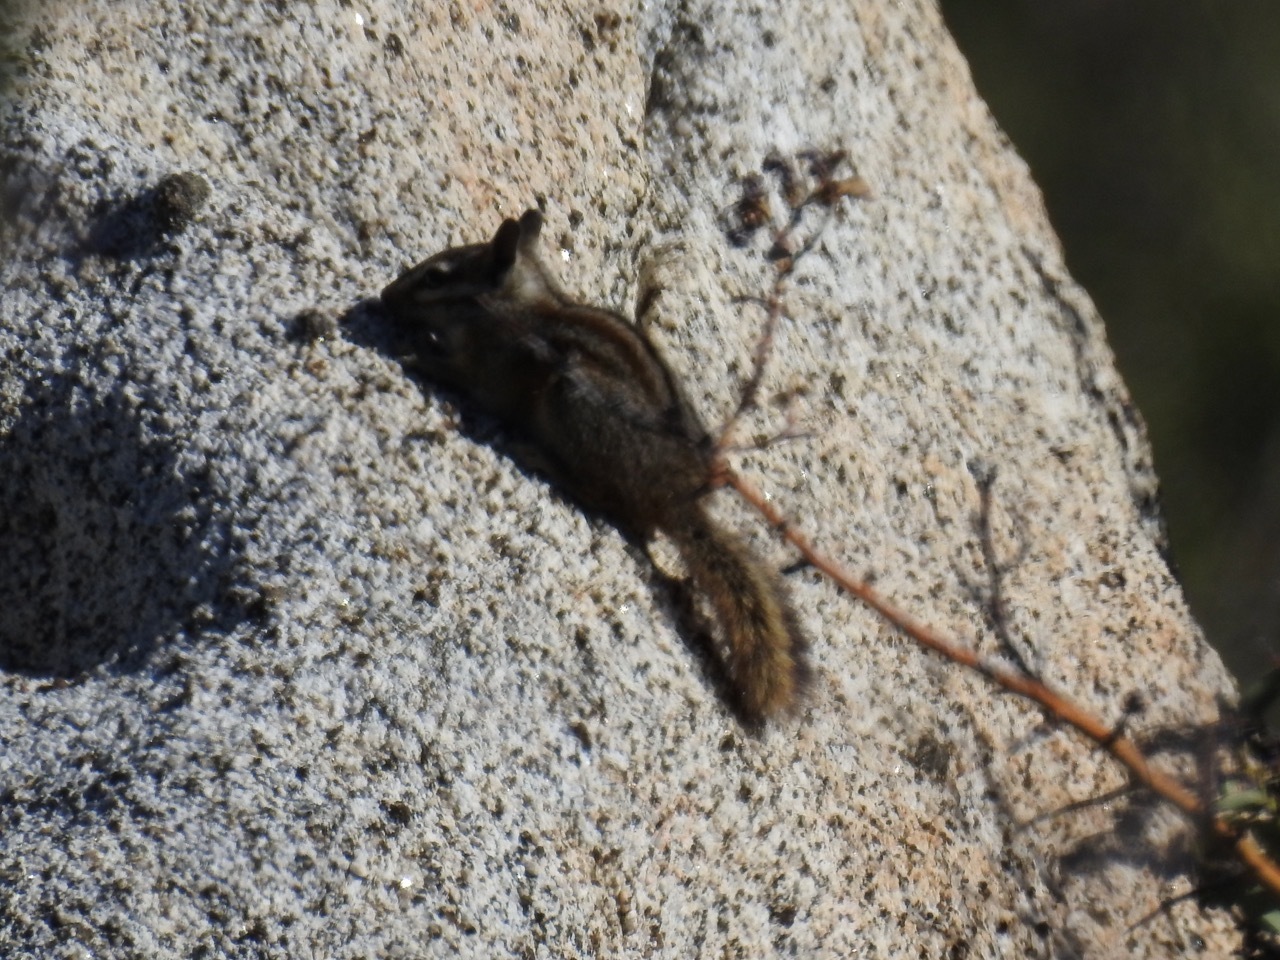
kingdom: Animalia
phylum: Chordata
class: Mammalia
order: Rodentia
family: Sciuridae
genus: Tamias
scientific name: Tamias obscurus
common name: California chipmunk
